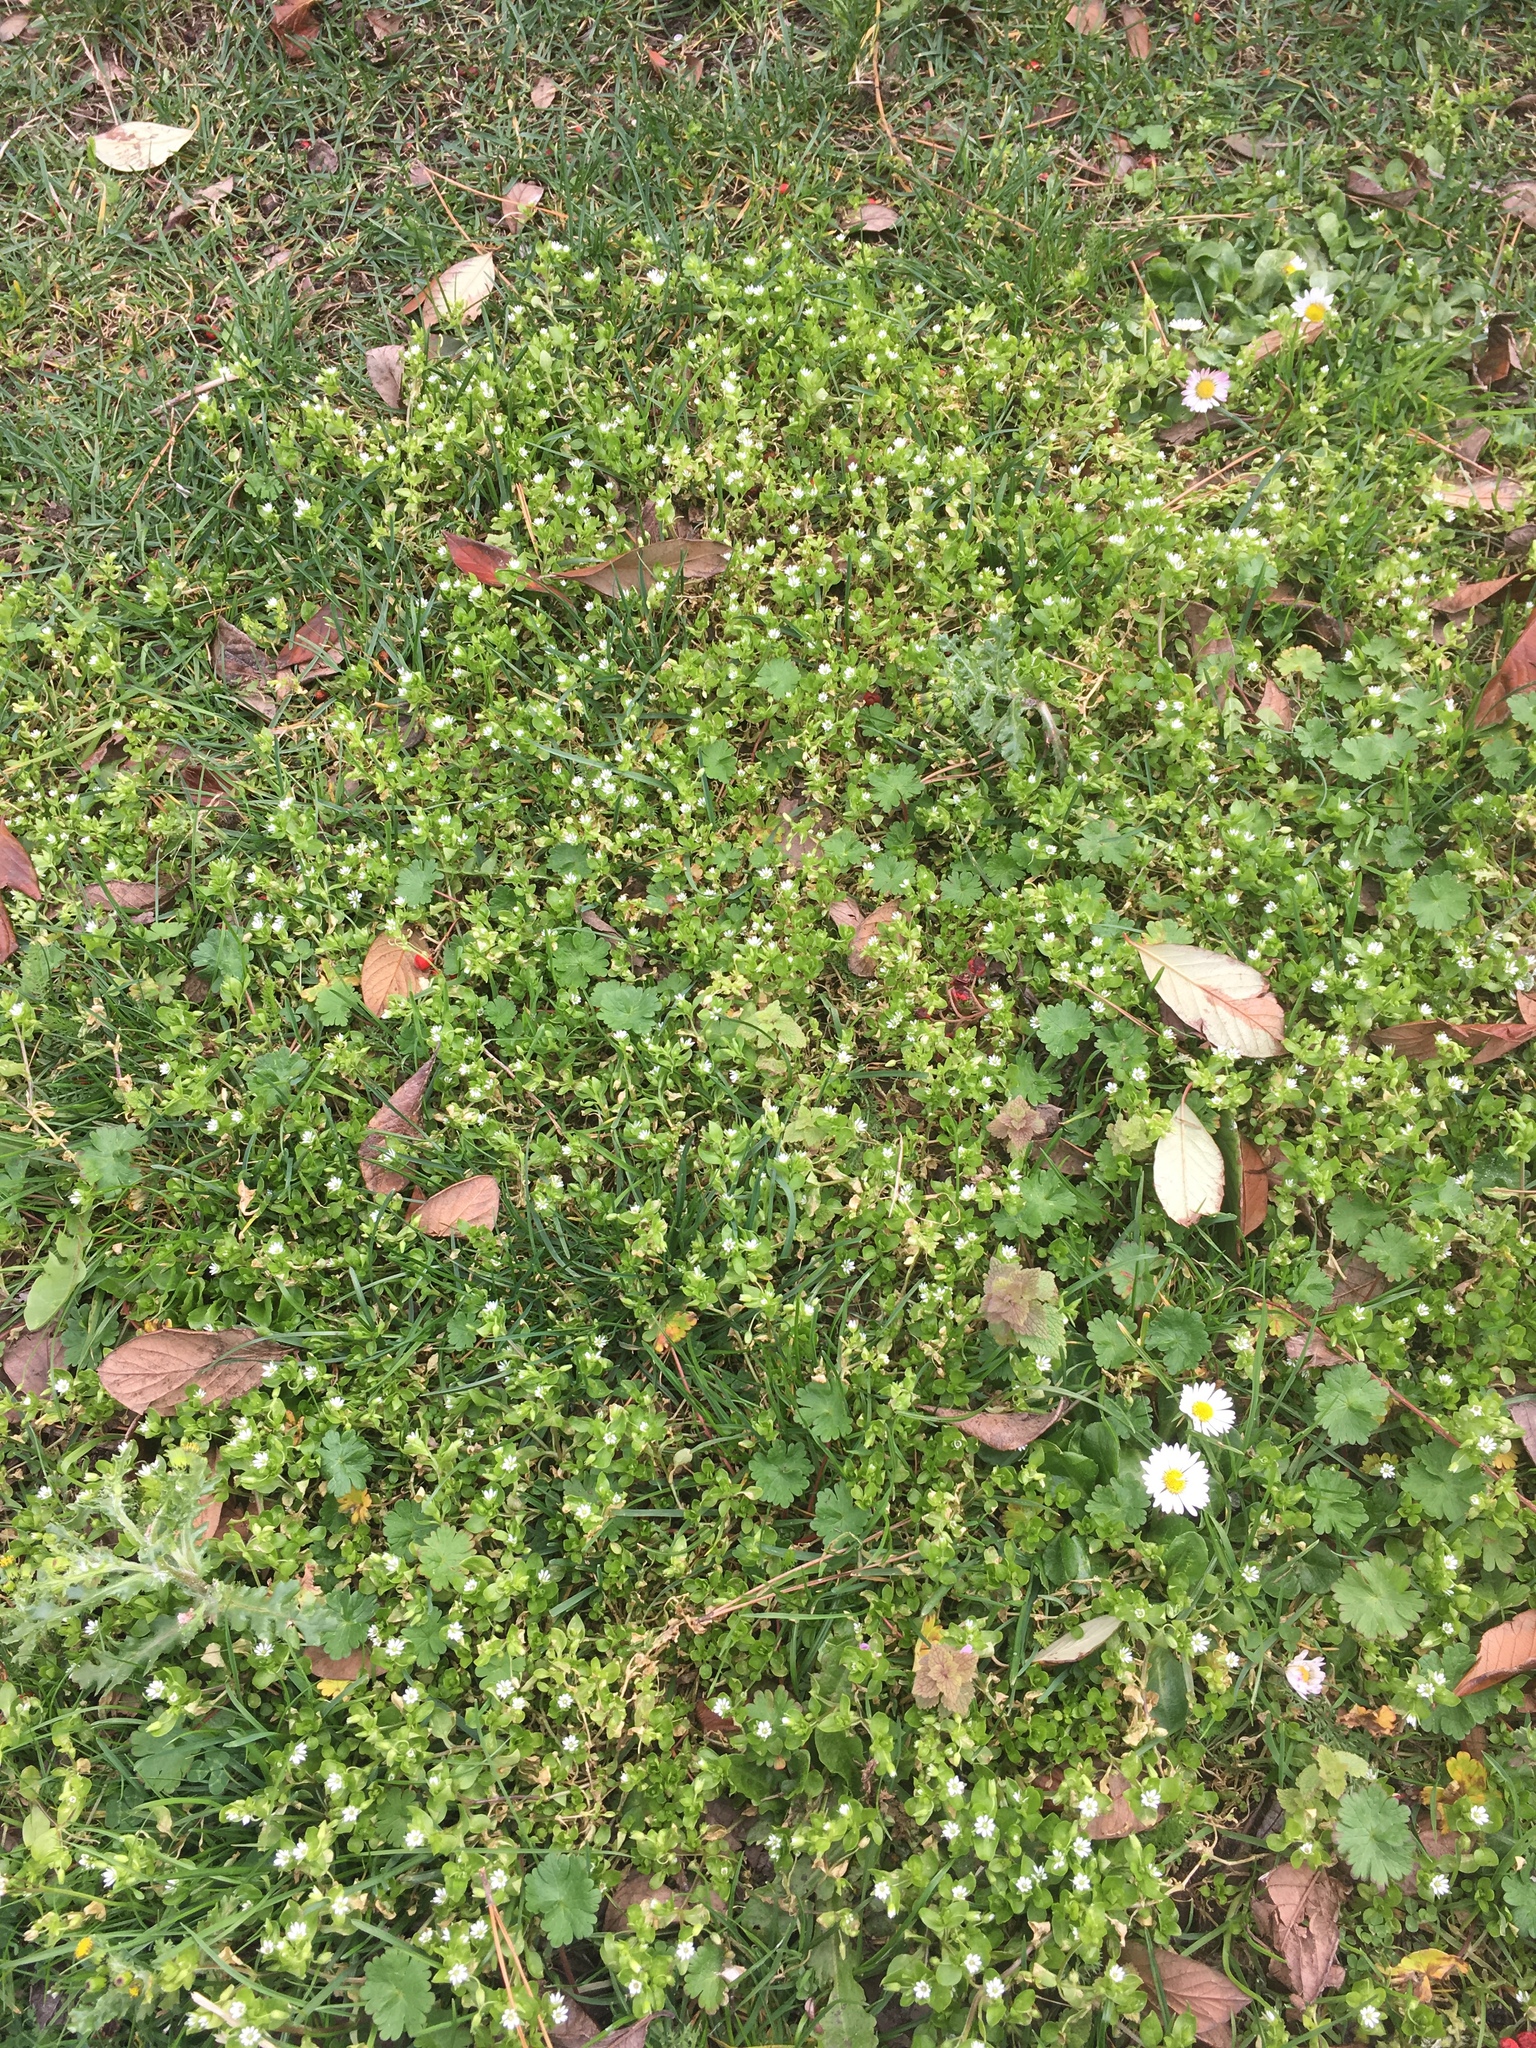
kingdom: Plantae
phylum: Tracheophyta
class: Magnoliopsida
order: Caryophyllales
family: Caryophyllaceae
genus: Stellaria
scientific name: Stellaria media
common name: Common chickweed
